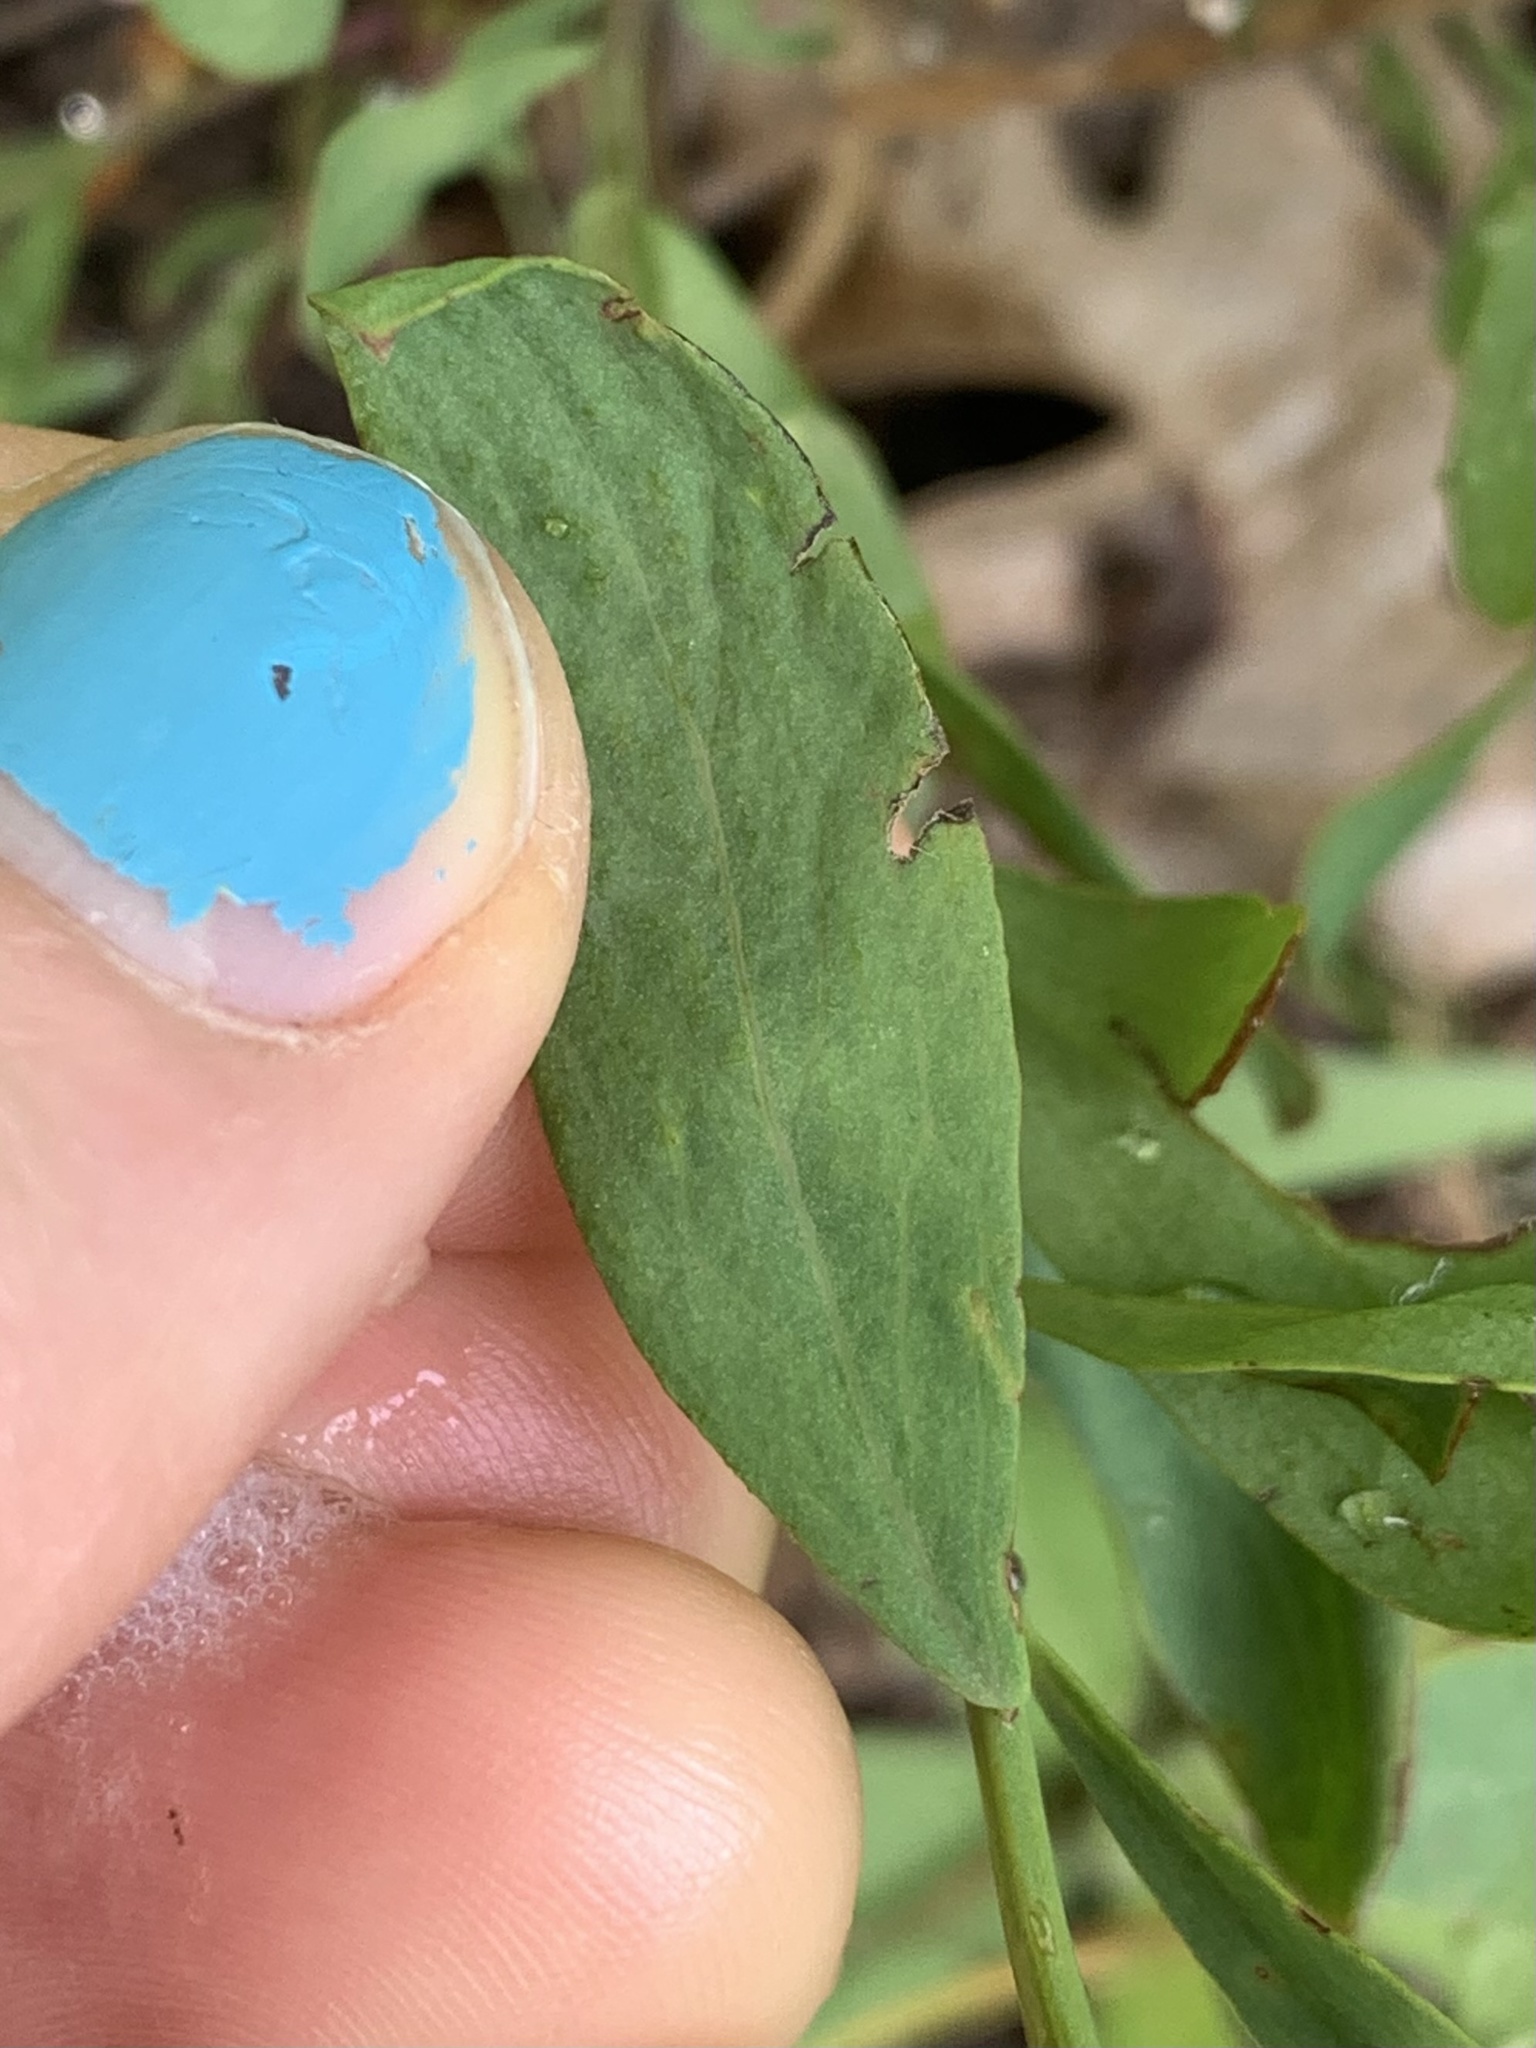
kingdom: Plantae
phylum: Tracheophyta
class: Magnoliopsida
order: Santalales
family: Comandraceae
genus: Comandra
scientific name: Comandra umbellata
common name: Bastard toadflax
